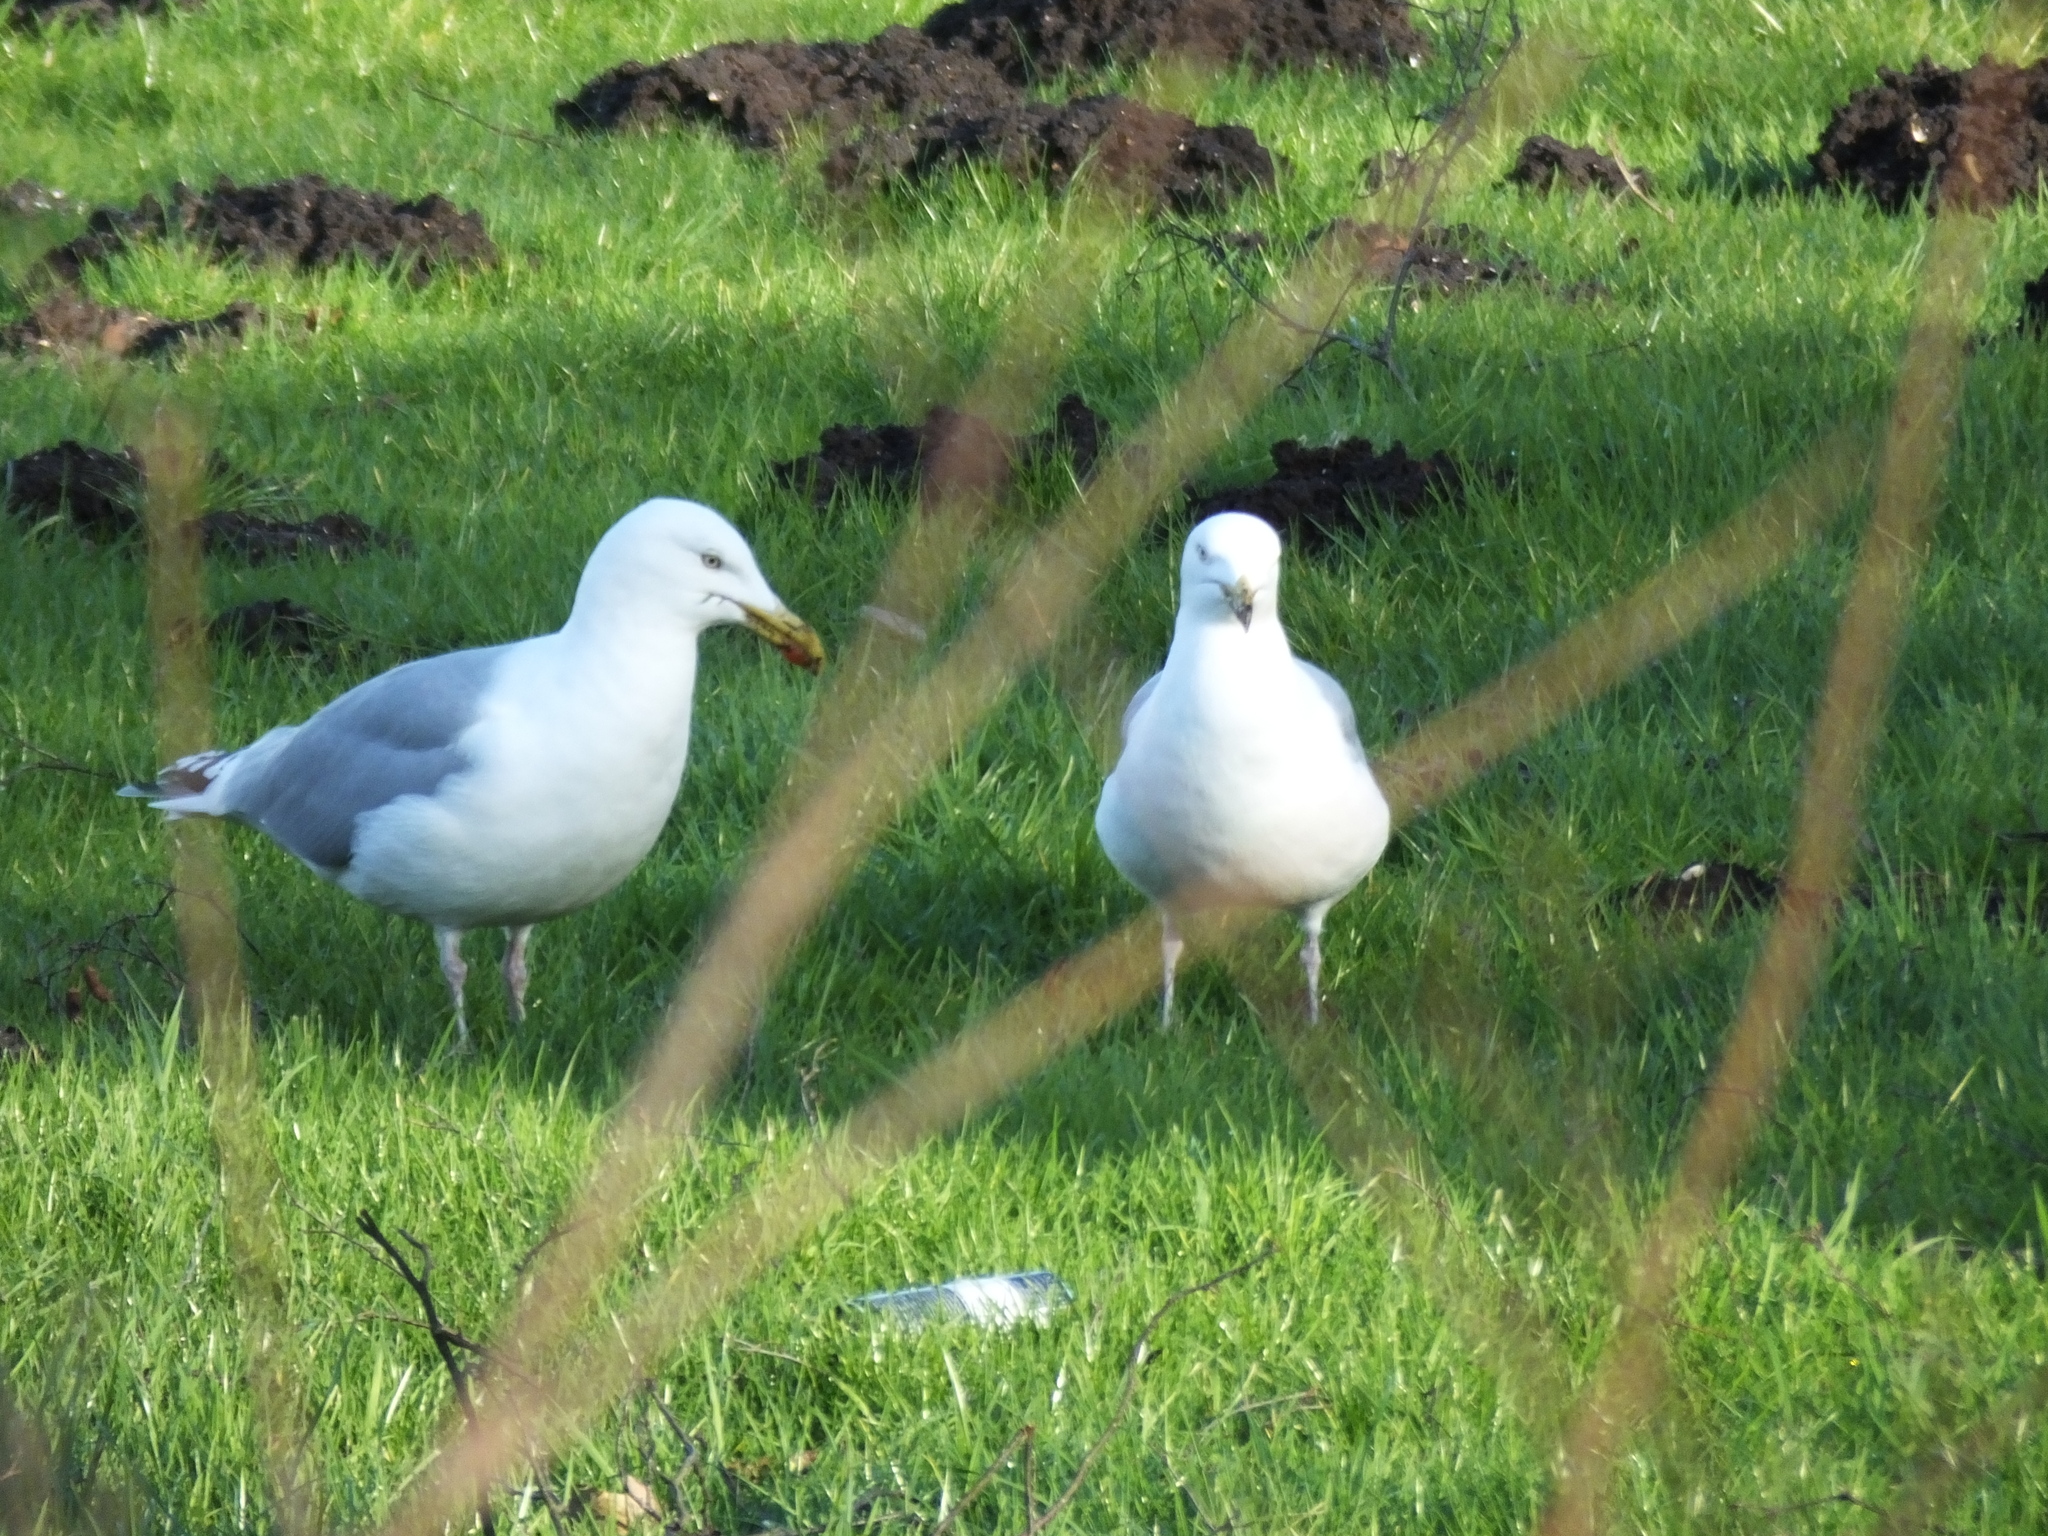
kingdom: Animalia
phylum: Chordata
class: Aves
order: Charadriiformes
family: Laridae
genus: Larus
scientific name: Larus argentatus
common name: Herring gull
